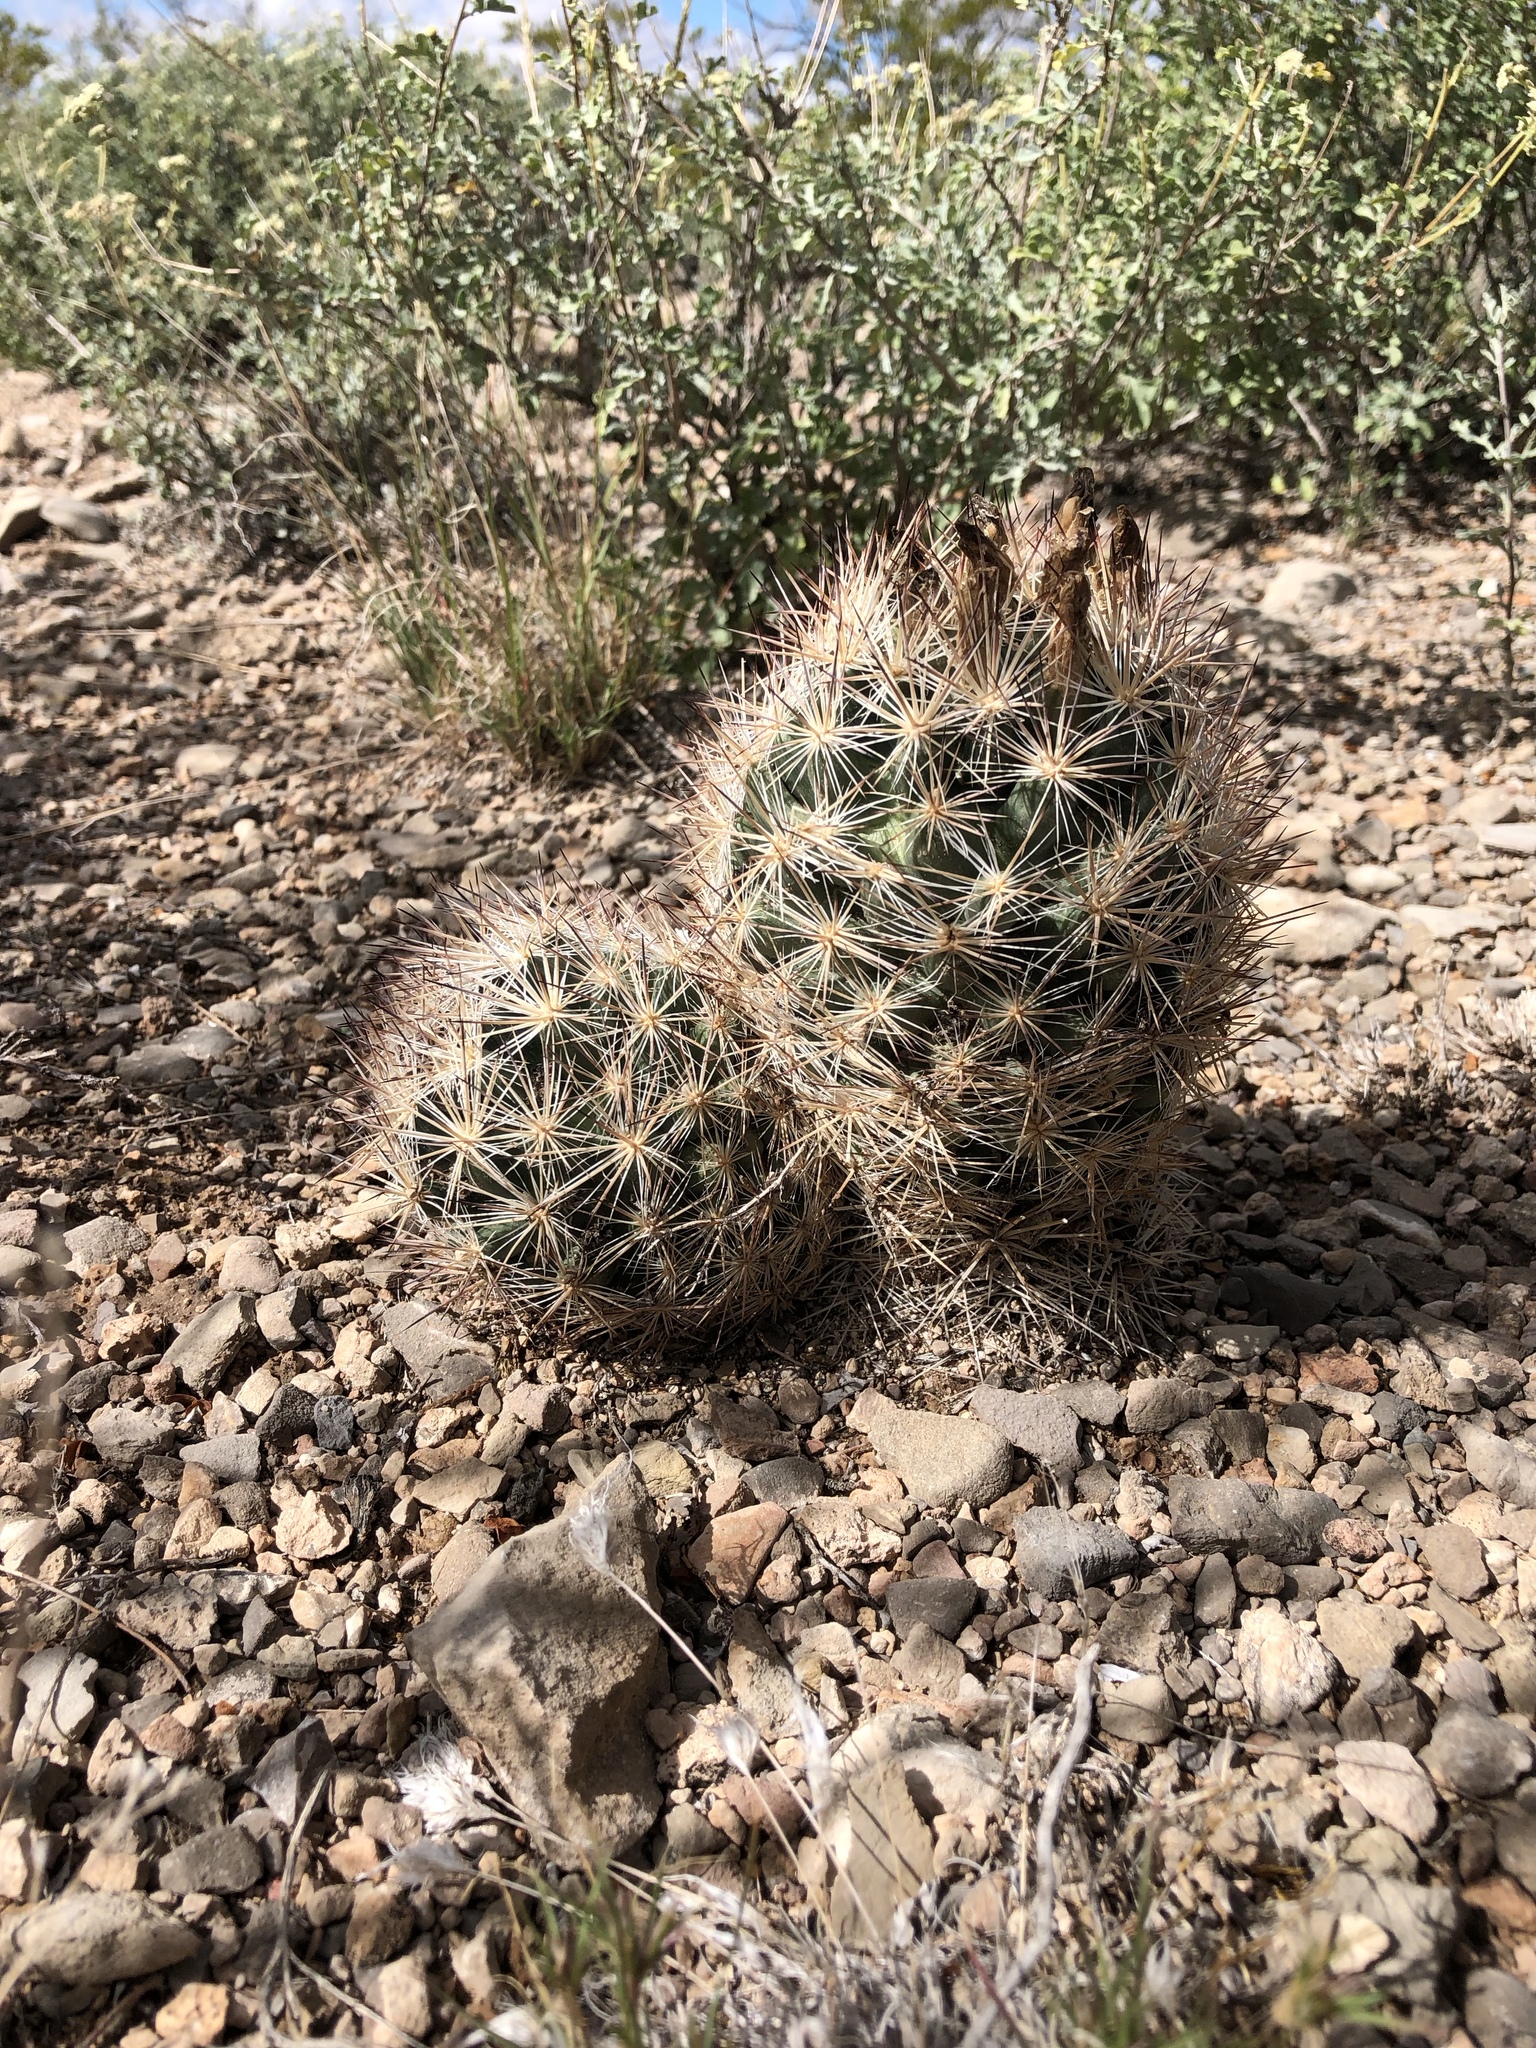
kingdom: Plantae
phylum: Tracheophyta
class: Magnoliopsida
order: Caryophyllales
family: Cactaceae
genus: Pelecyphora
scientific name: Pelecyphora vivipara
